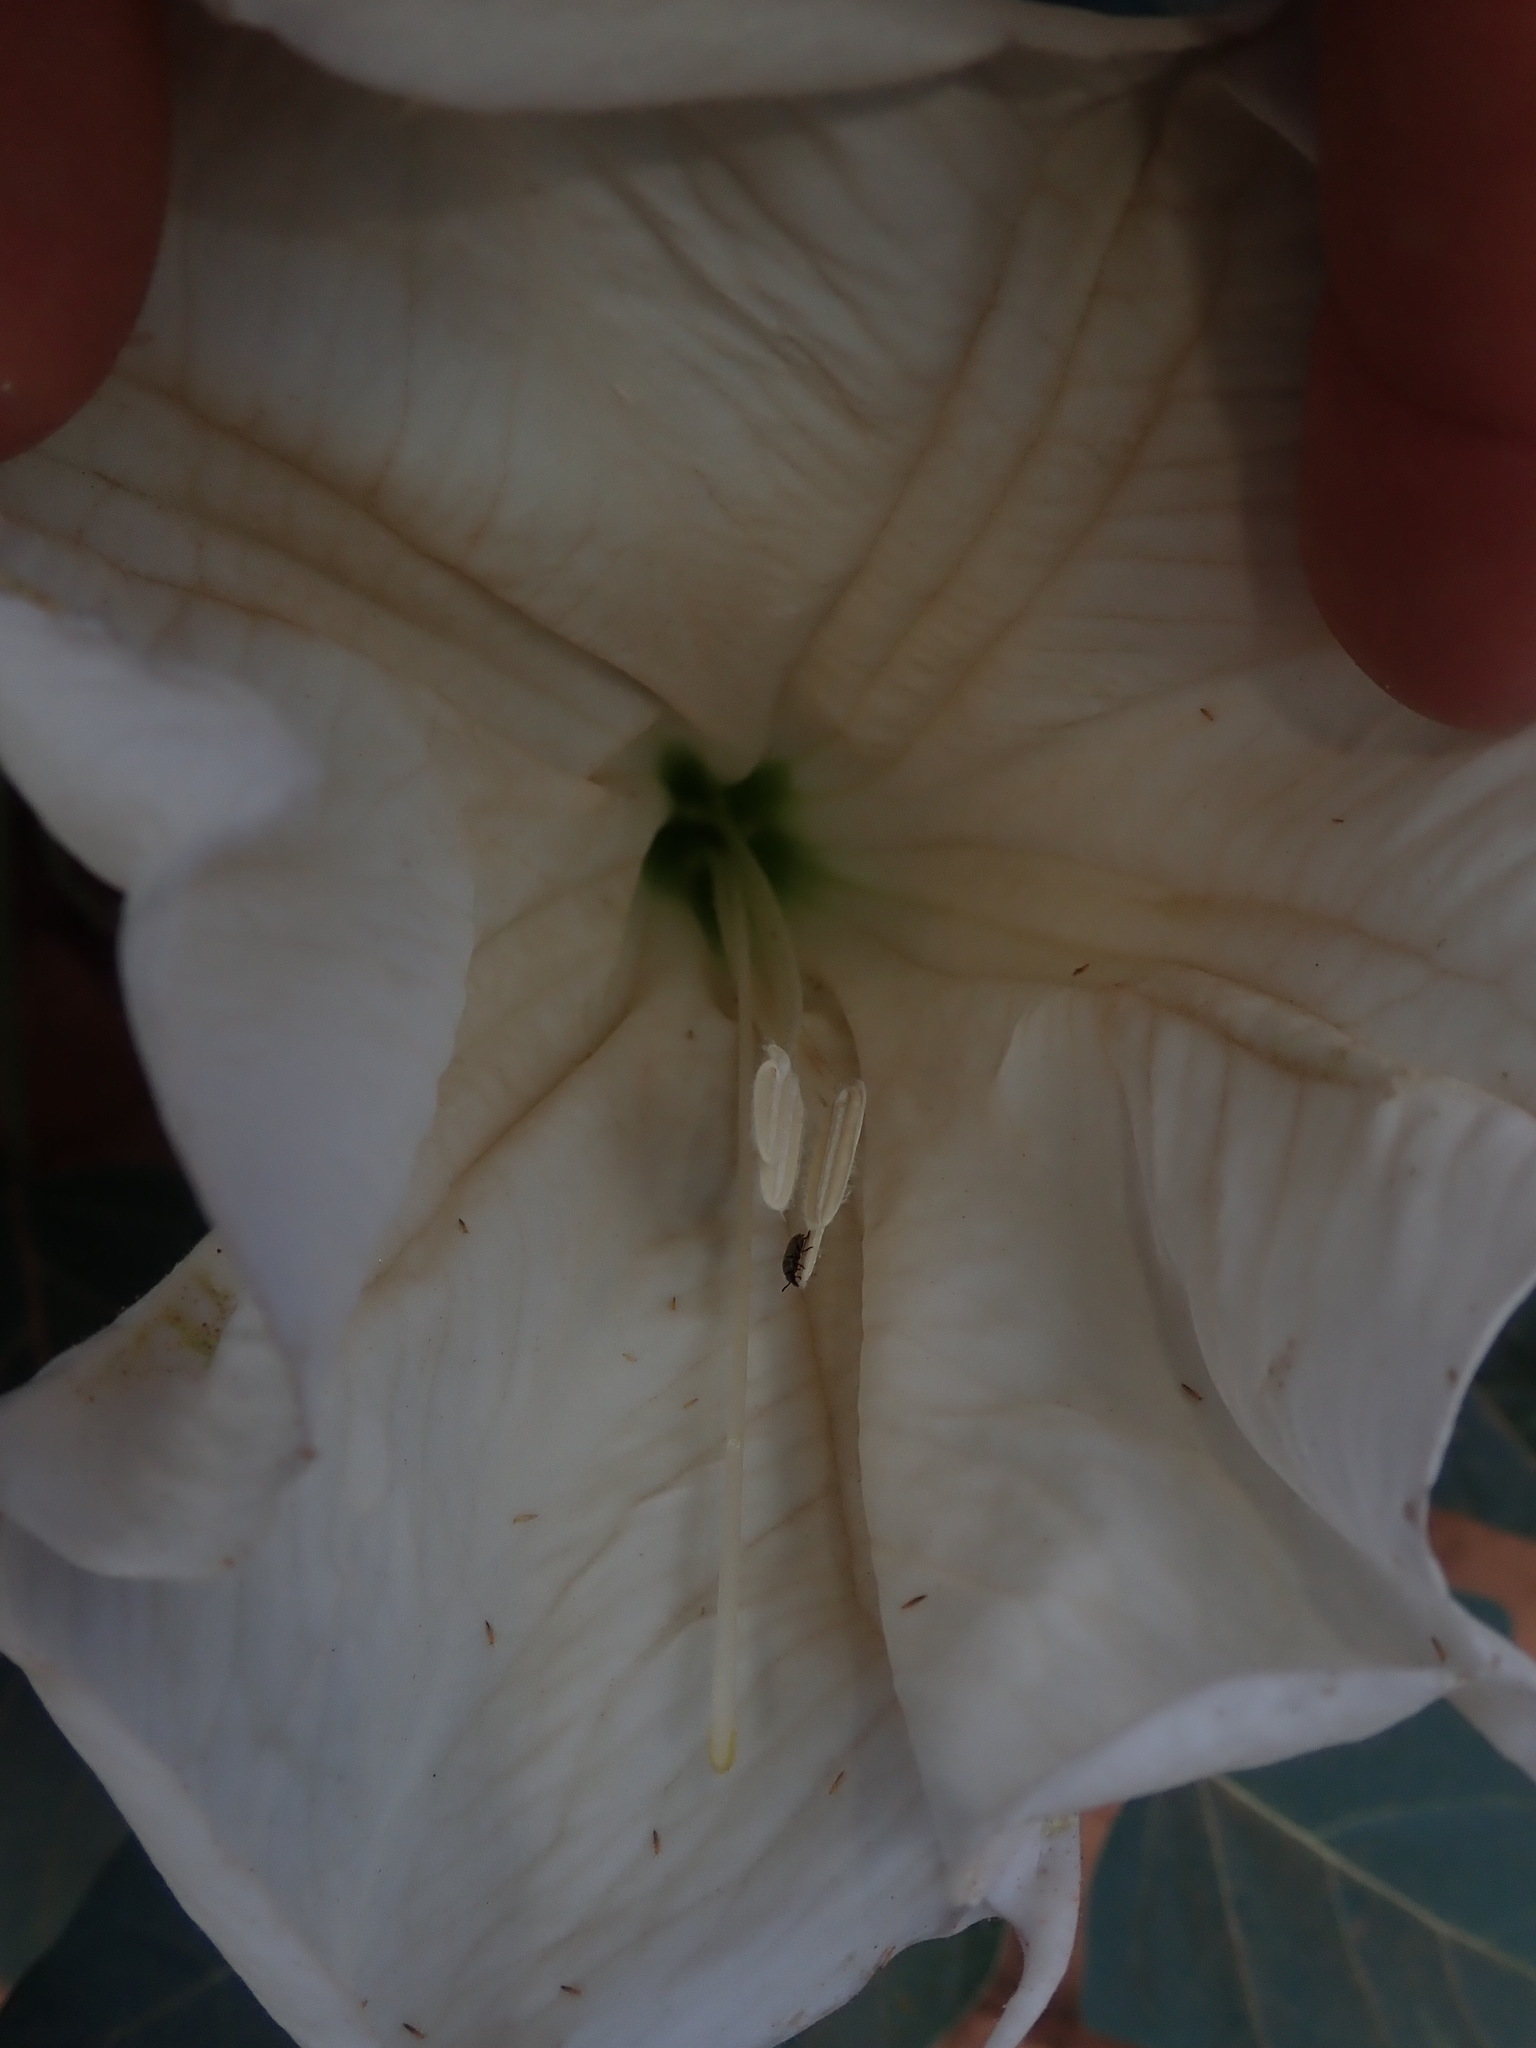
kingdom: Plantae
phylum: Tracheophyta
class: Magnoliopsida
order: Solanales
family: Solanaceae
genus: Datura
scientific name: Datura wrightii
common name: Sacred thorn-apple
